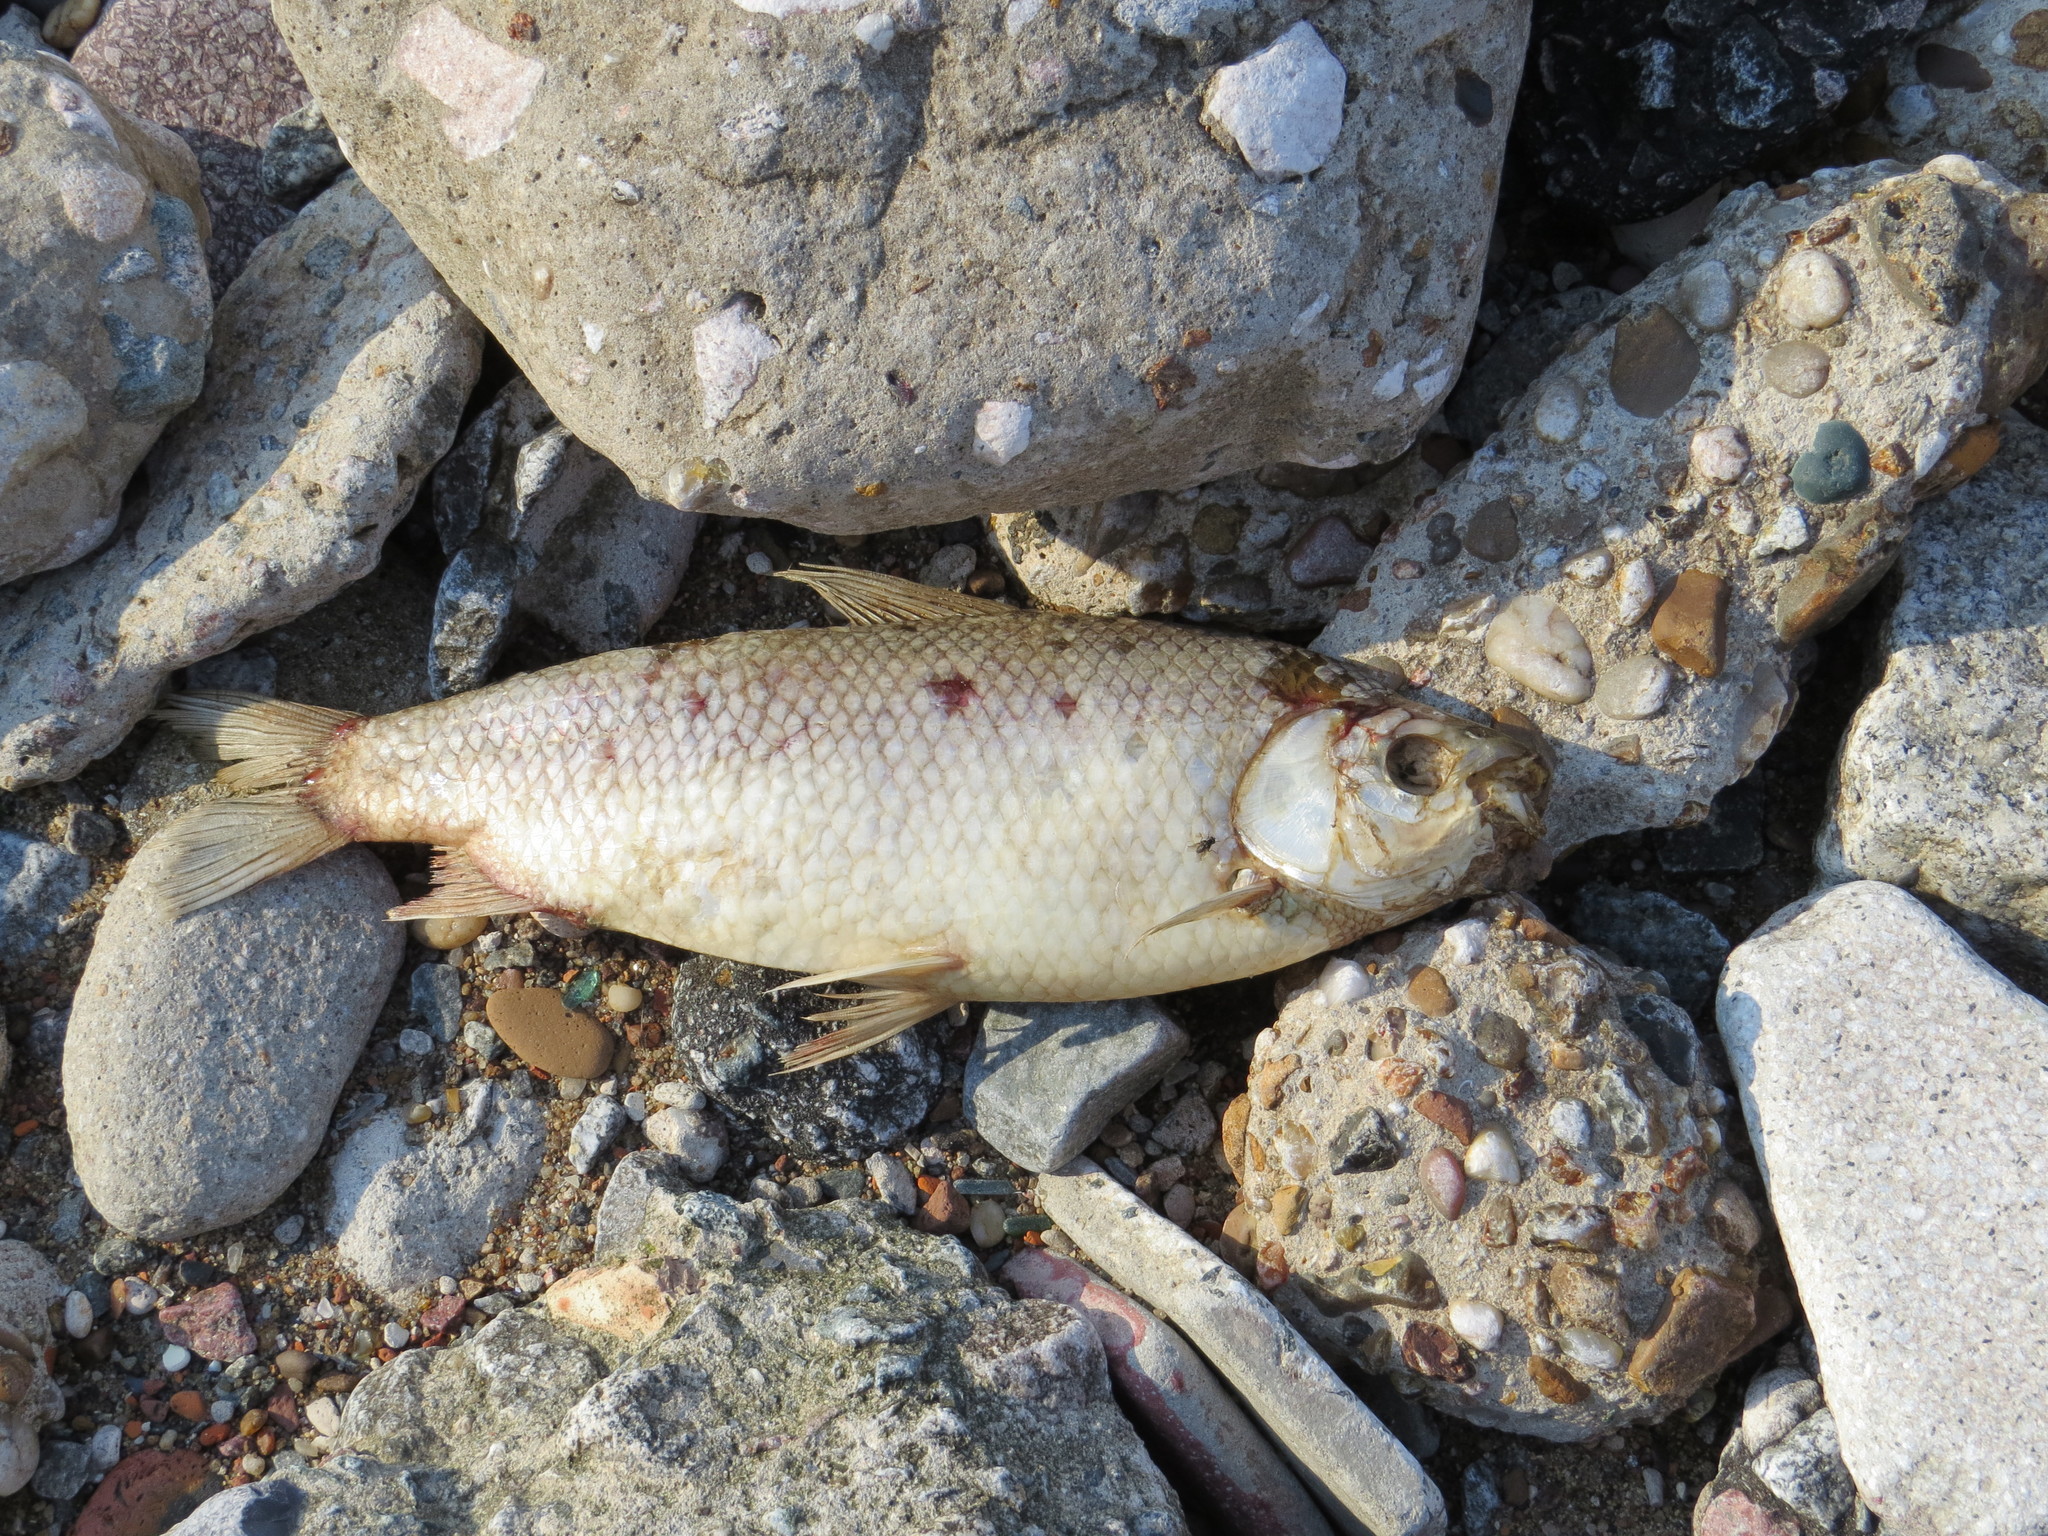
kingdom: Animalia
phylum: Chordata
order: Characiformes
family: Prochilodontidae
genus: Prochilodus
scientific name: Prochilodus lineatus
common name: Curimbata
